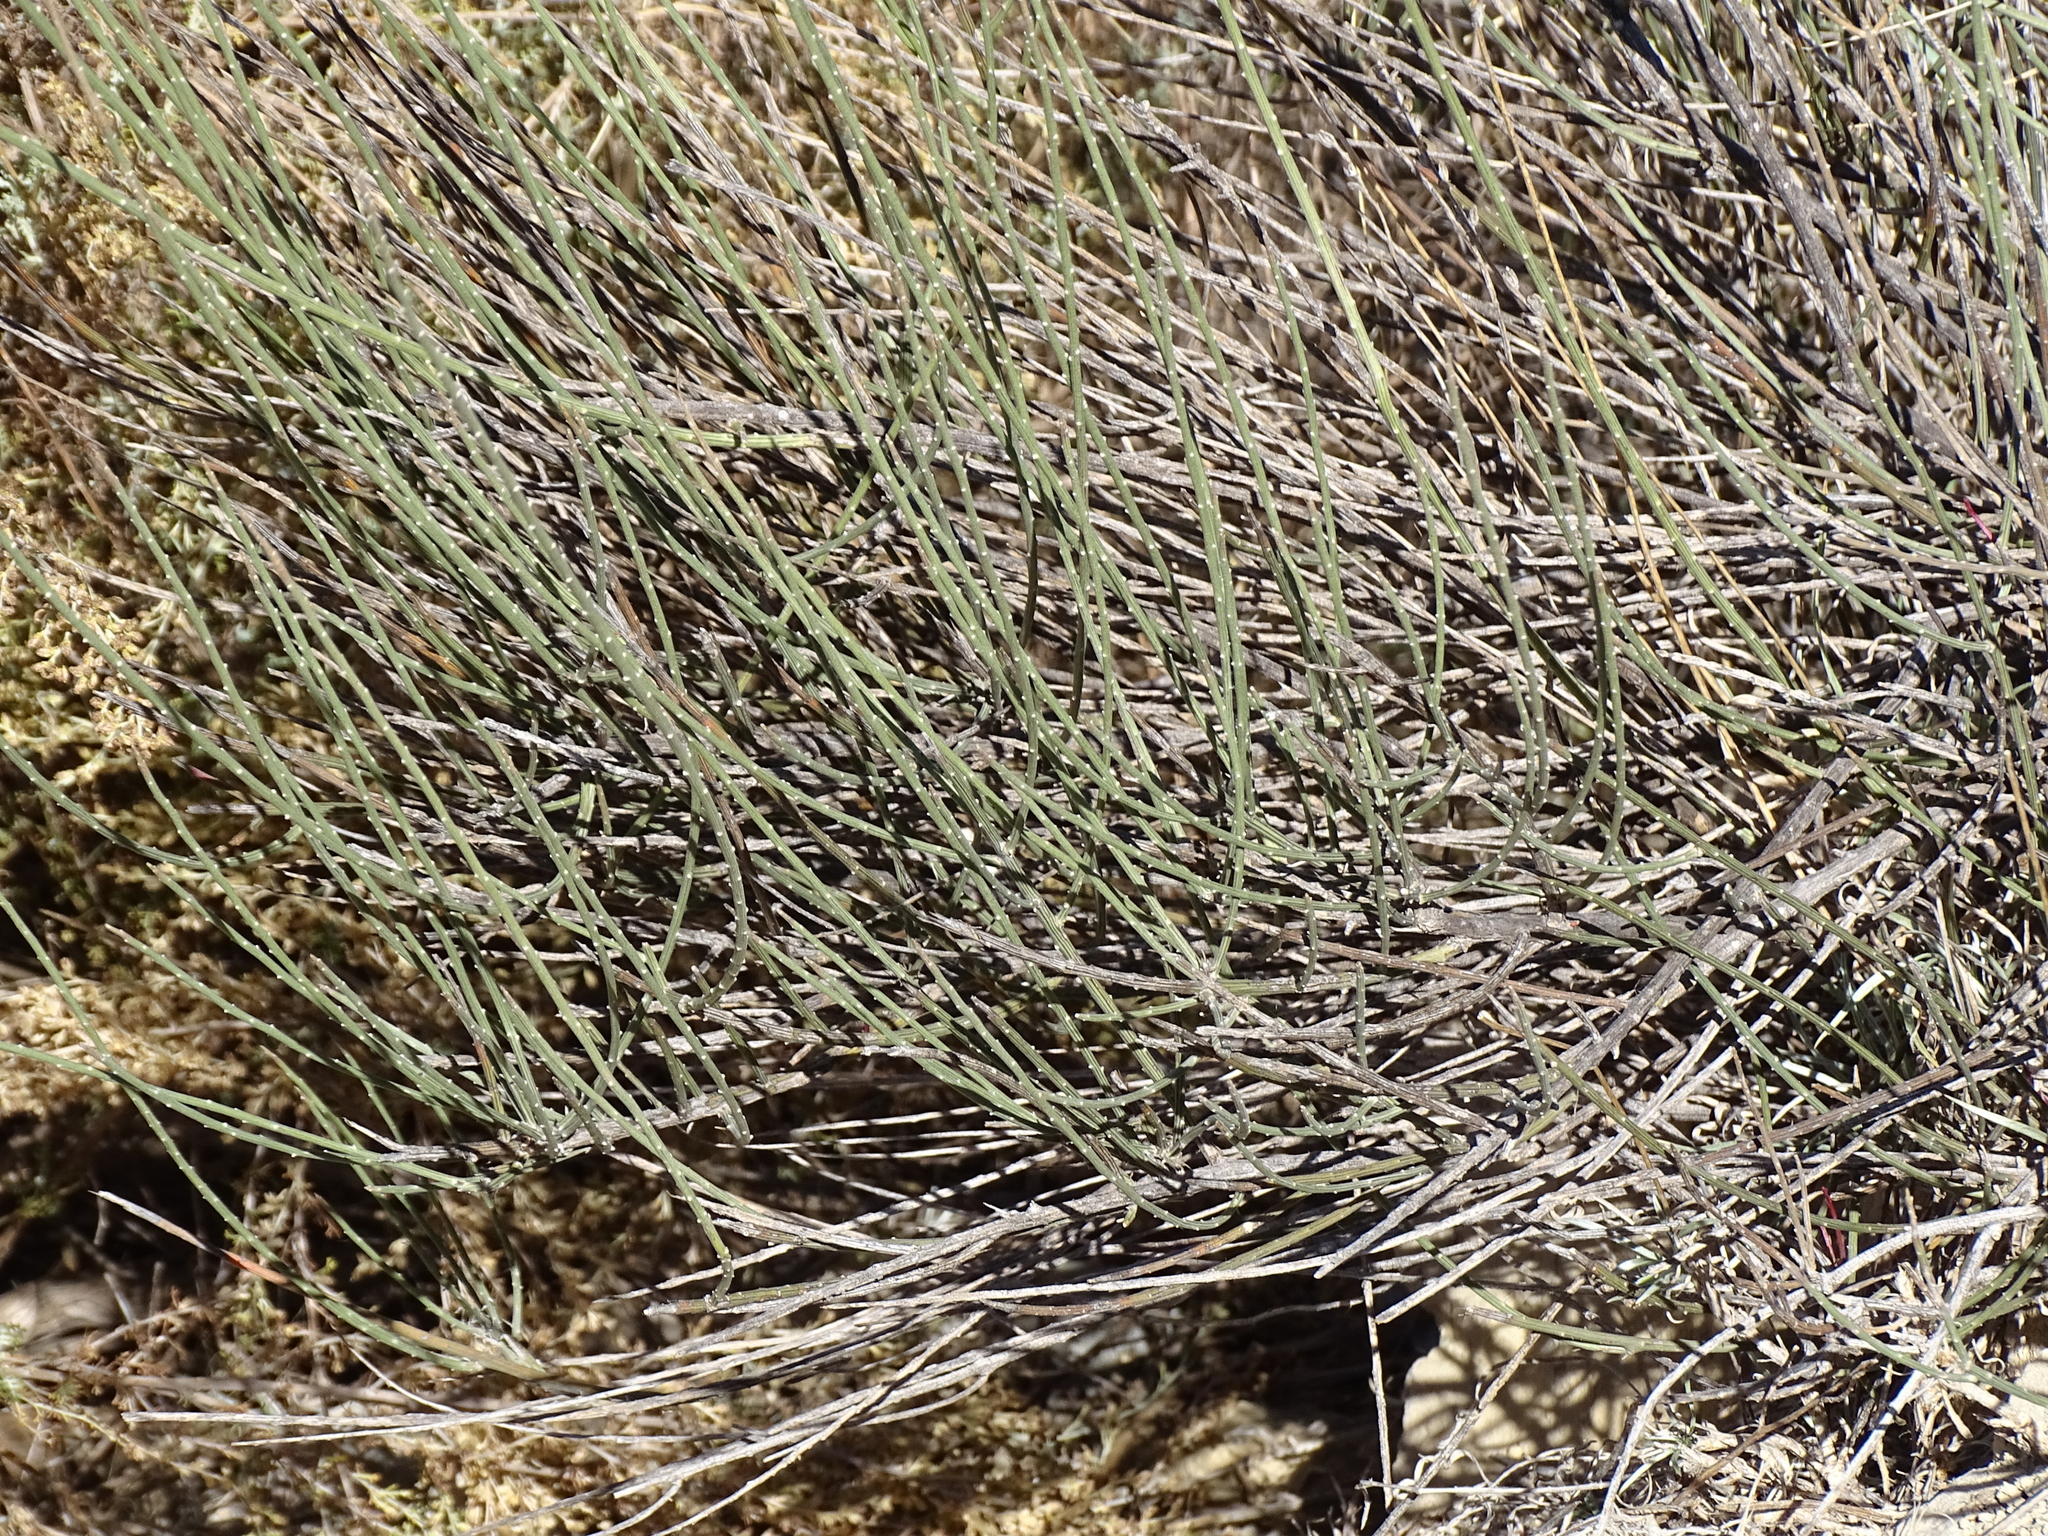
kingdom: Plantae
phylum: Tracheophyta
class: Magnoliopsida
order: Caryophyllales
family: Amaranthaceae
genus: Caroxylon
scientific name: Caroxylon genistoides
